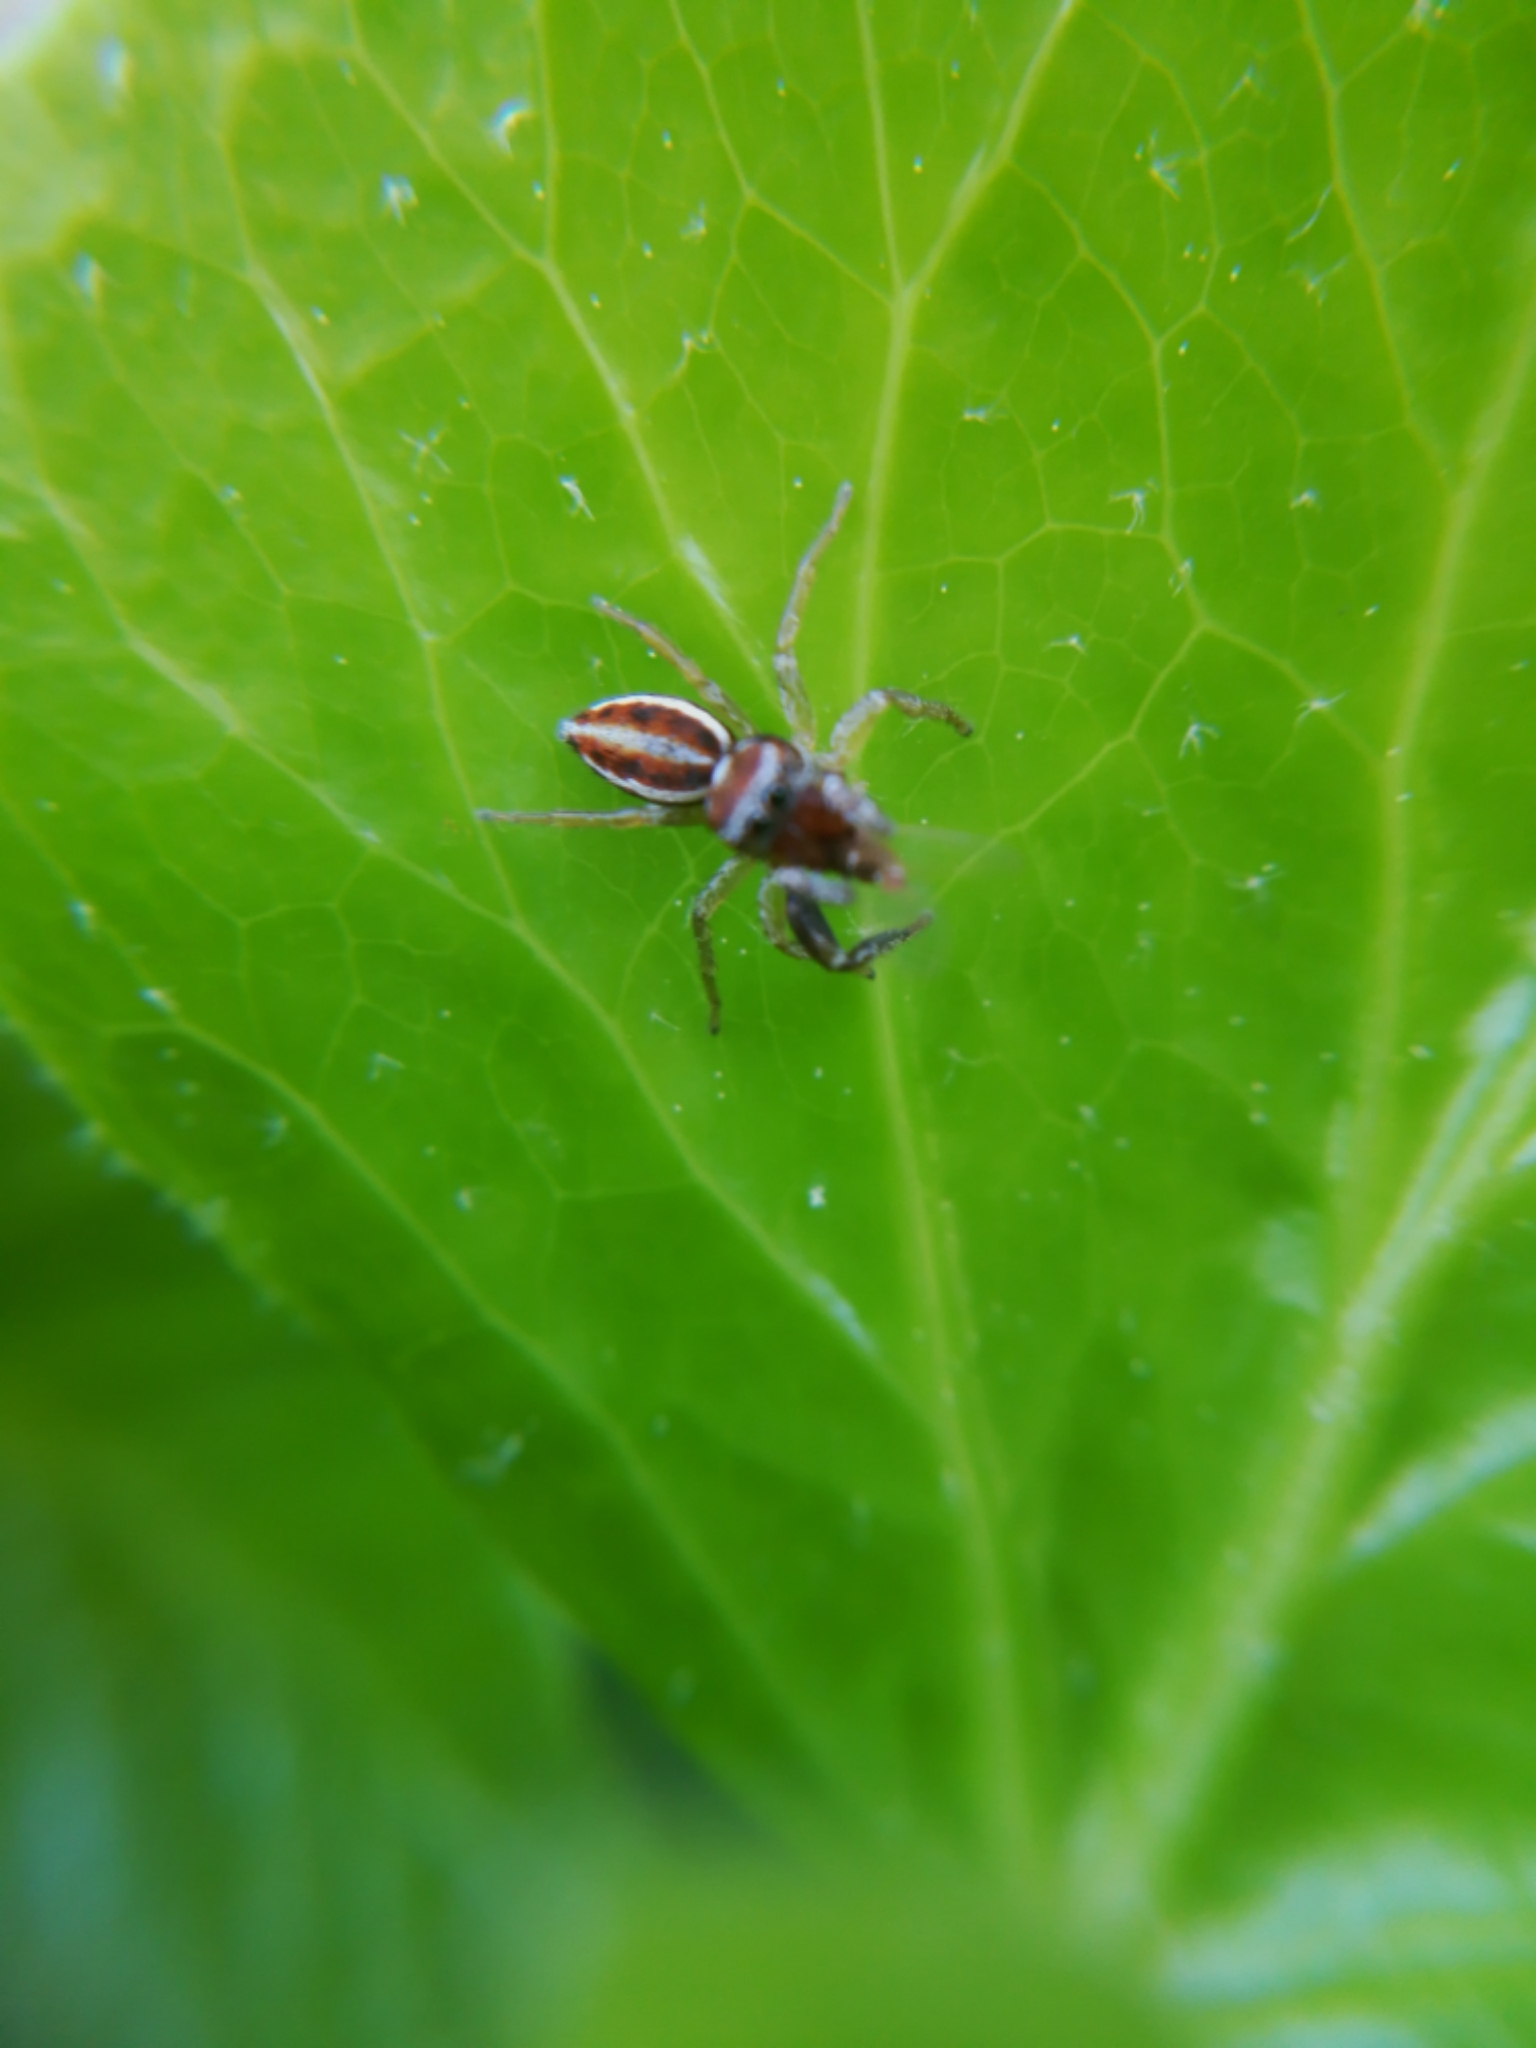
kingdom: Animalia
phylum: Arthropoda
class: Arachnida
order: Araneae
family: Salticidae
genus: Icius
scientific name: Icius hamatus
